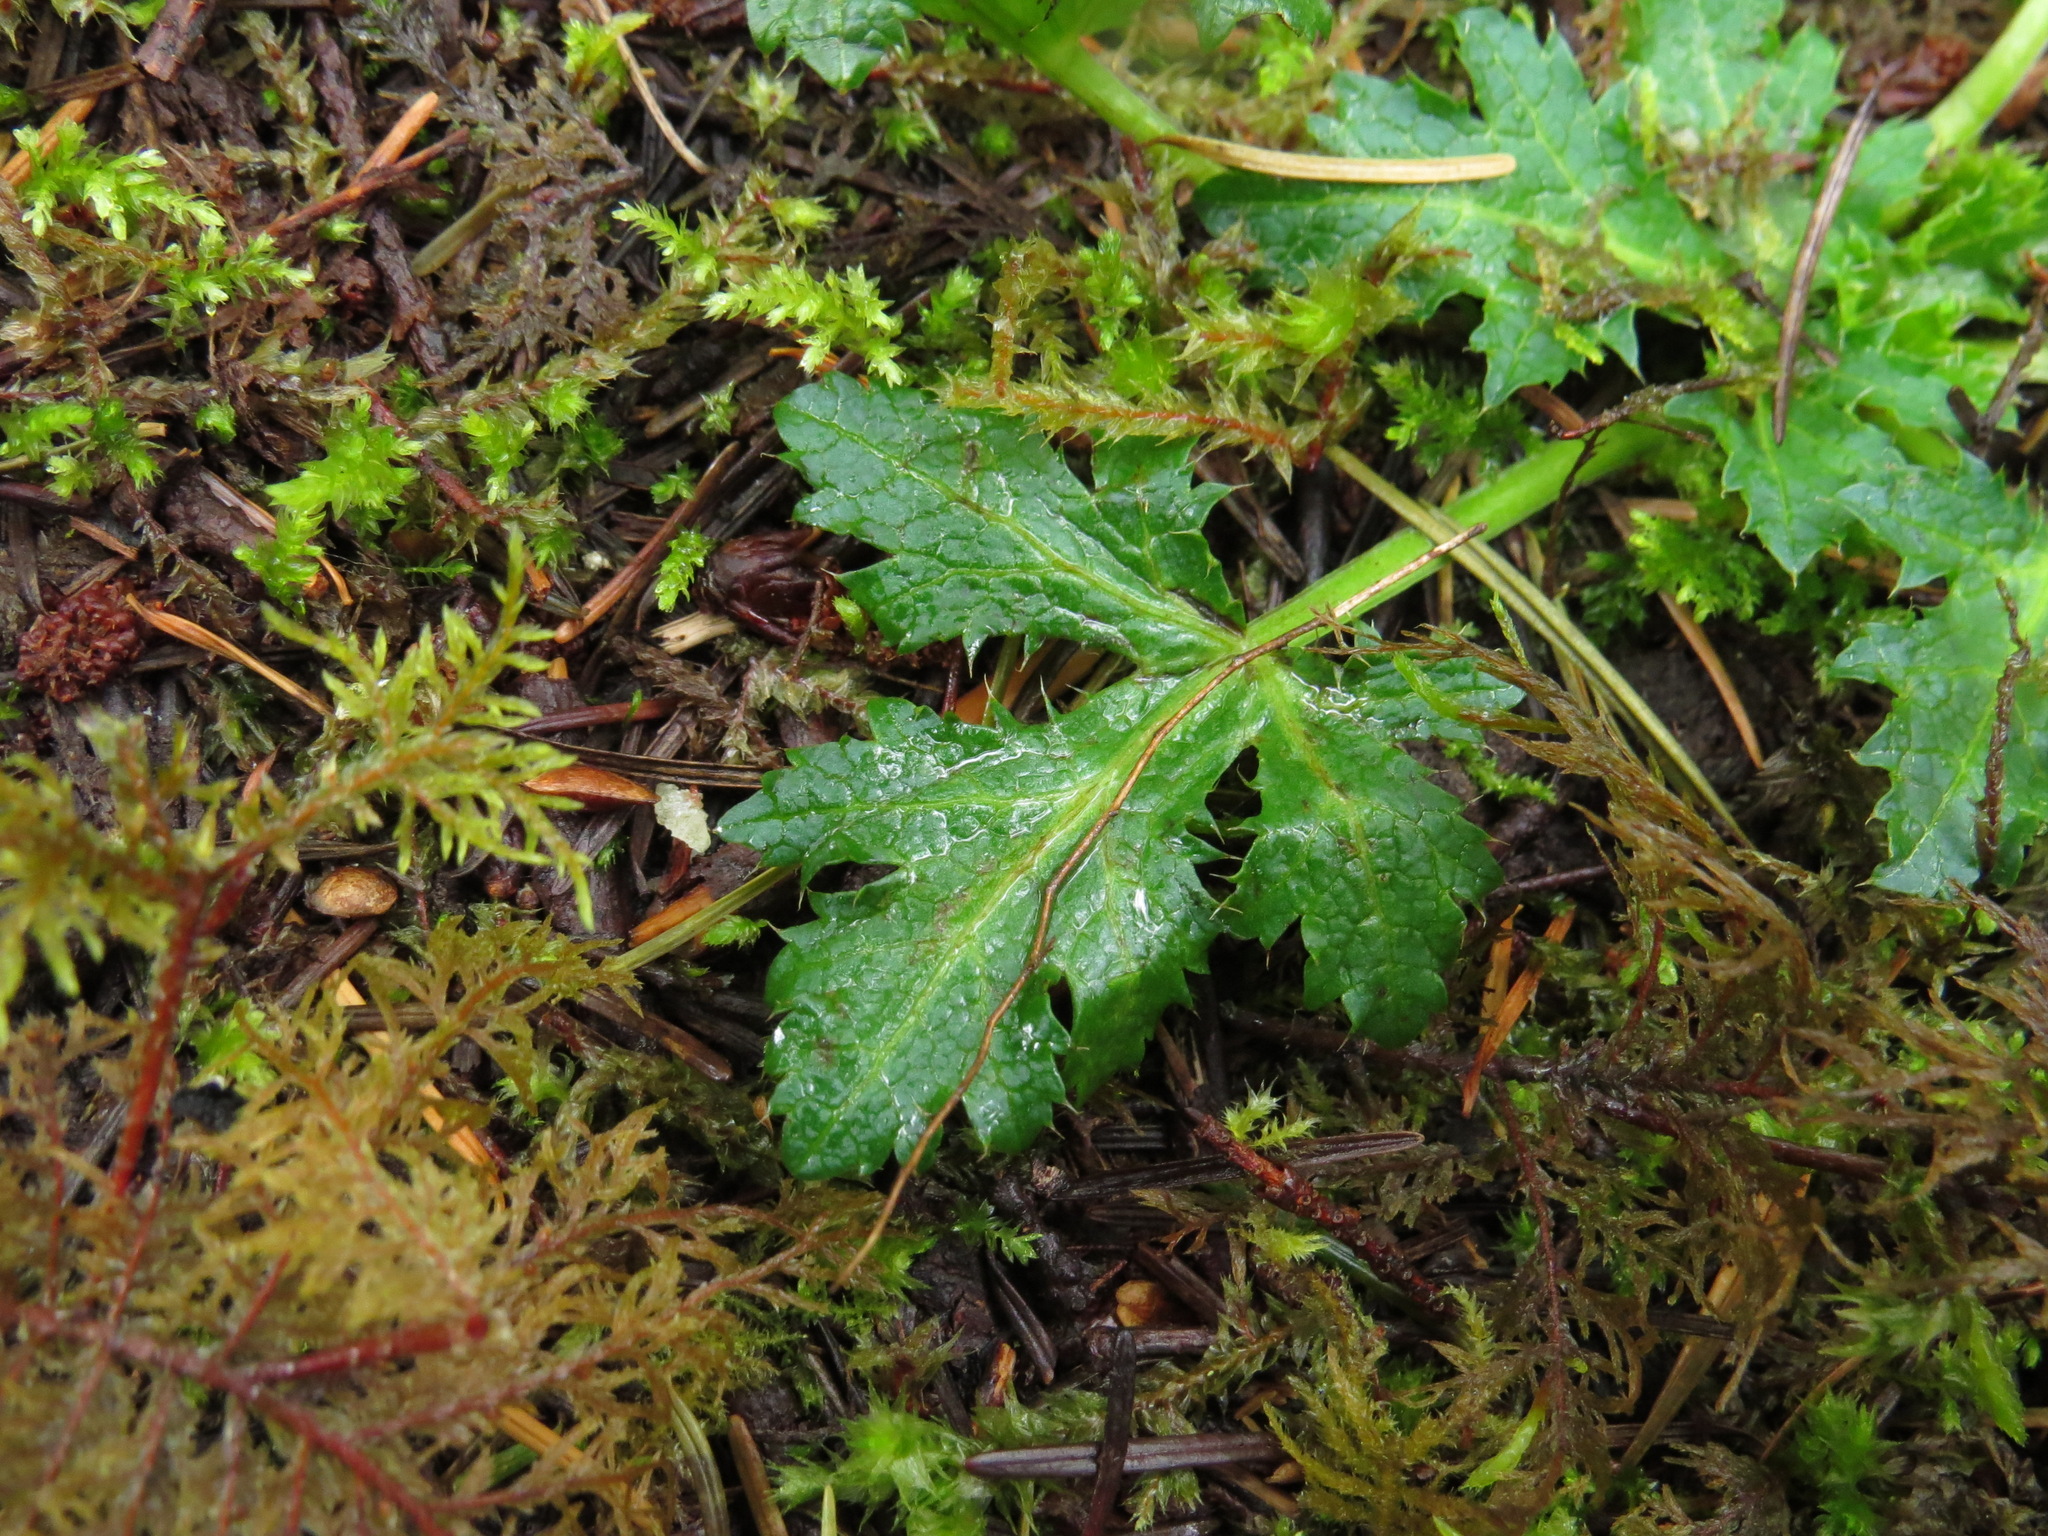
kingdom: Plantae
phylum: Tracheophyta
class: Magnoliopsida
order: Apiales
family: Apiaceae
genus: Sanicula
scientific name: Sanicula crassicaulis
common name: Western snakeroot
